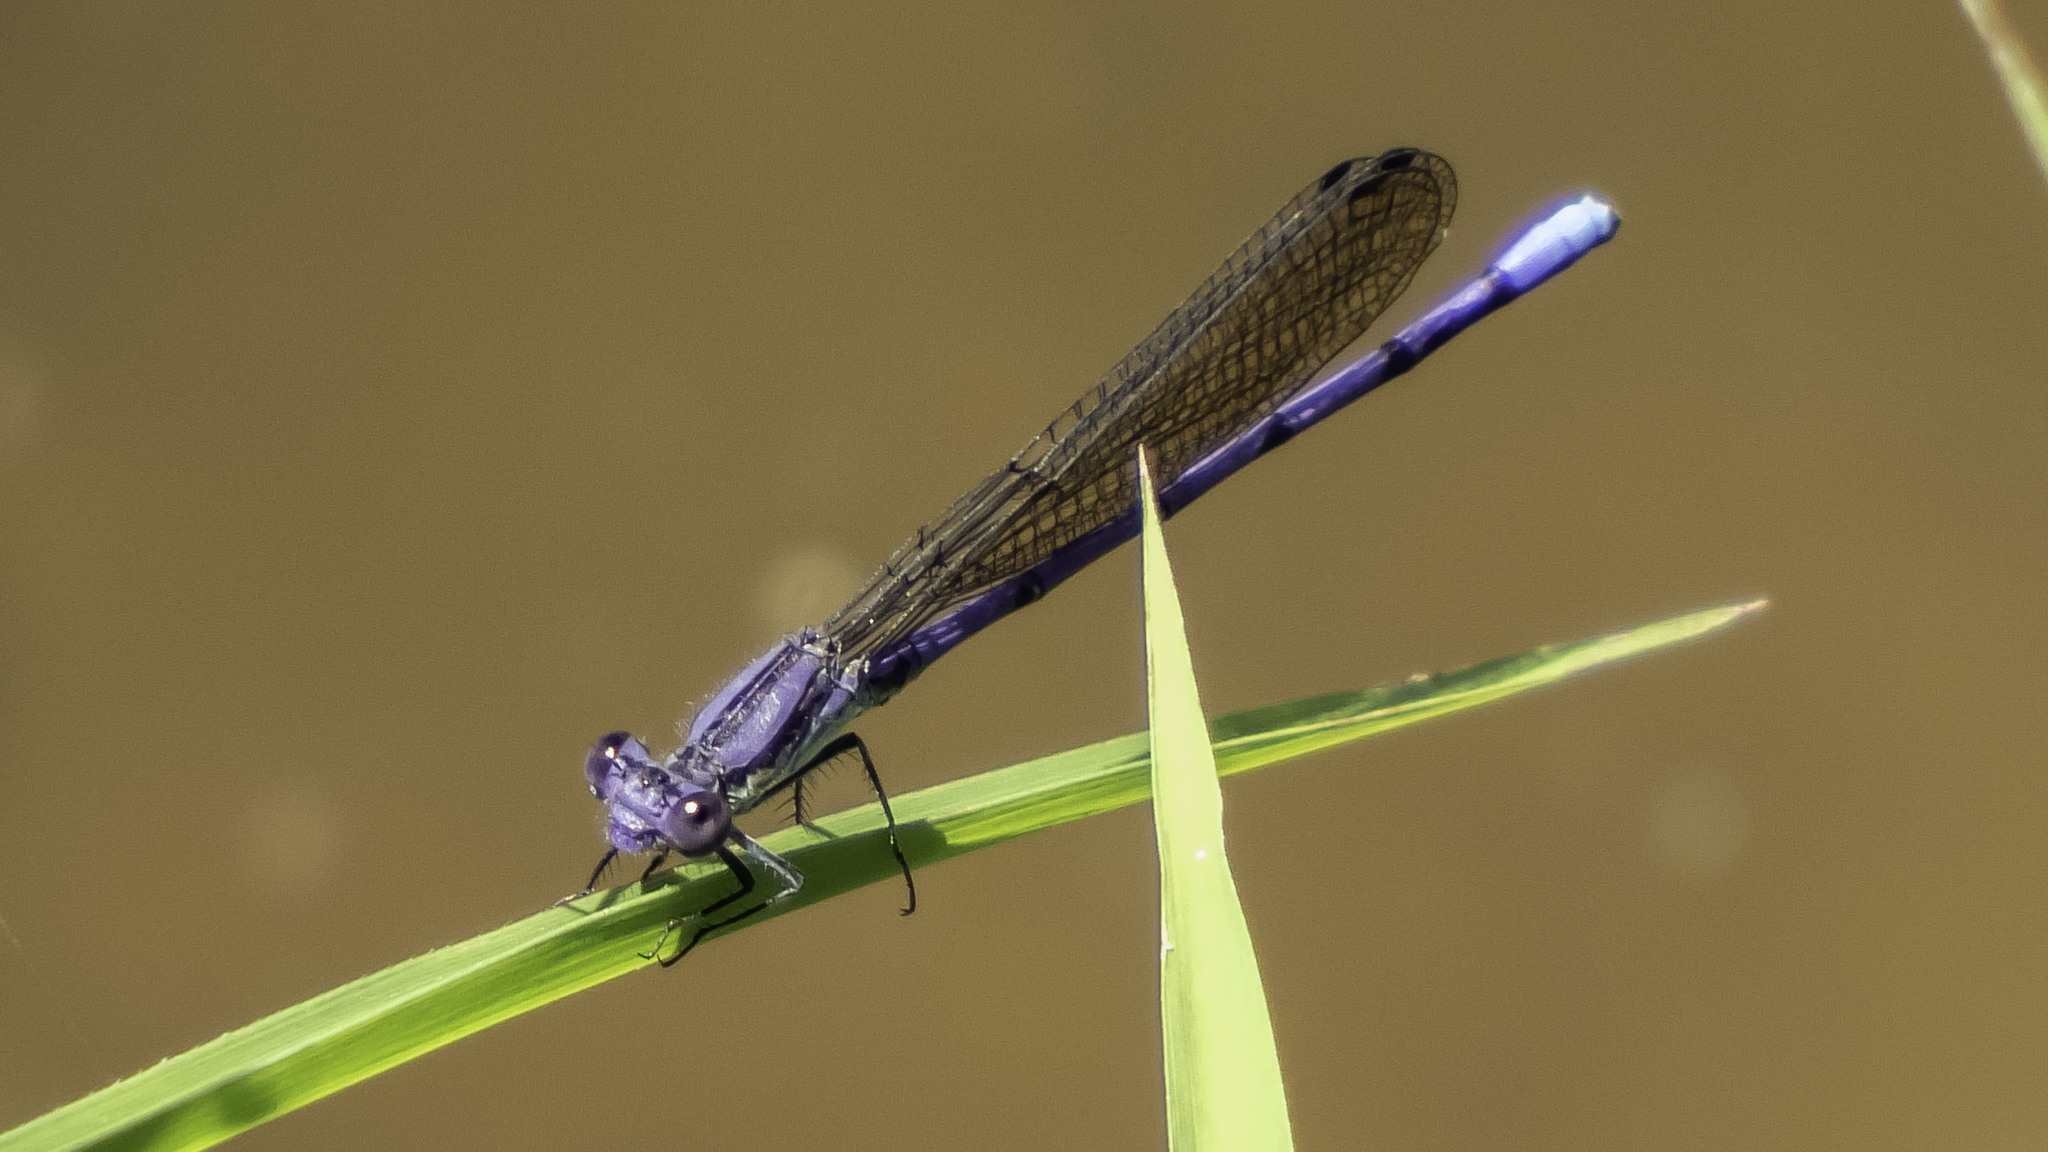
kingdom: Animalia
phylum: Arthropoda
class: Insecta
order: Odonata
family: Coenagrionidae
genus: Argia
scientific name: Argia fumipennis
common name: Variable dancer
